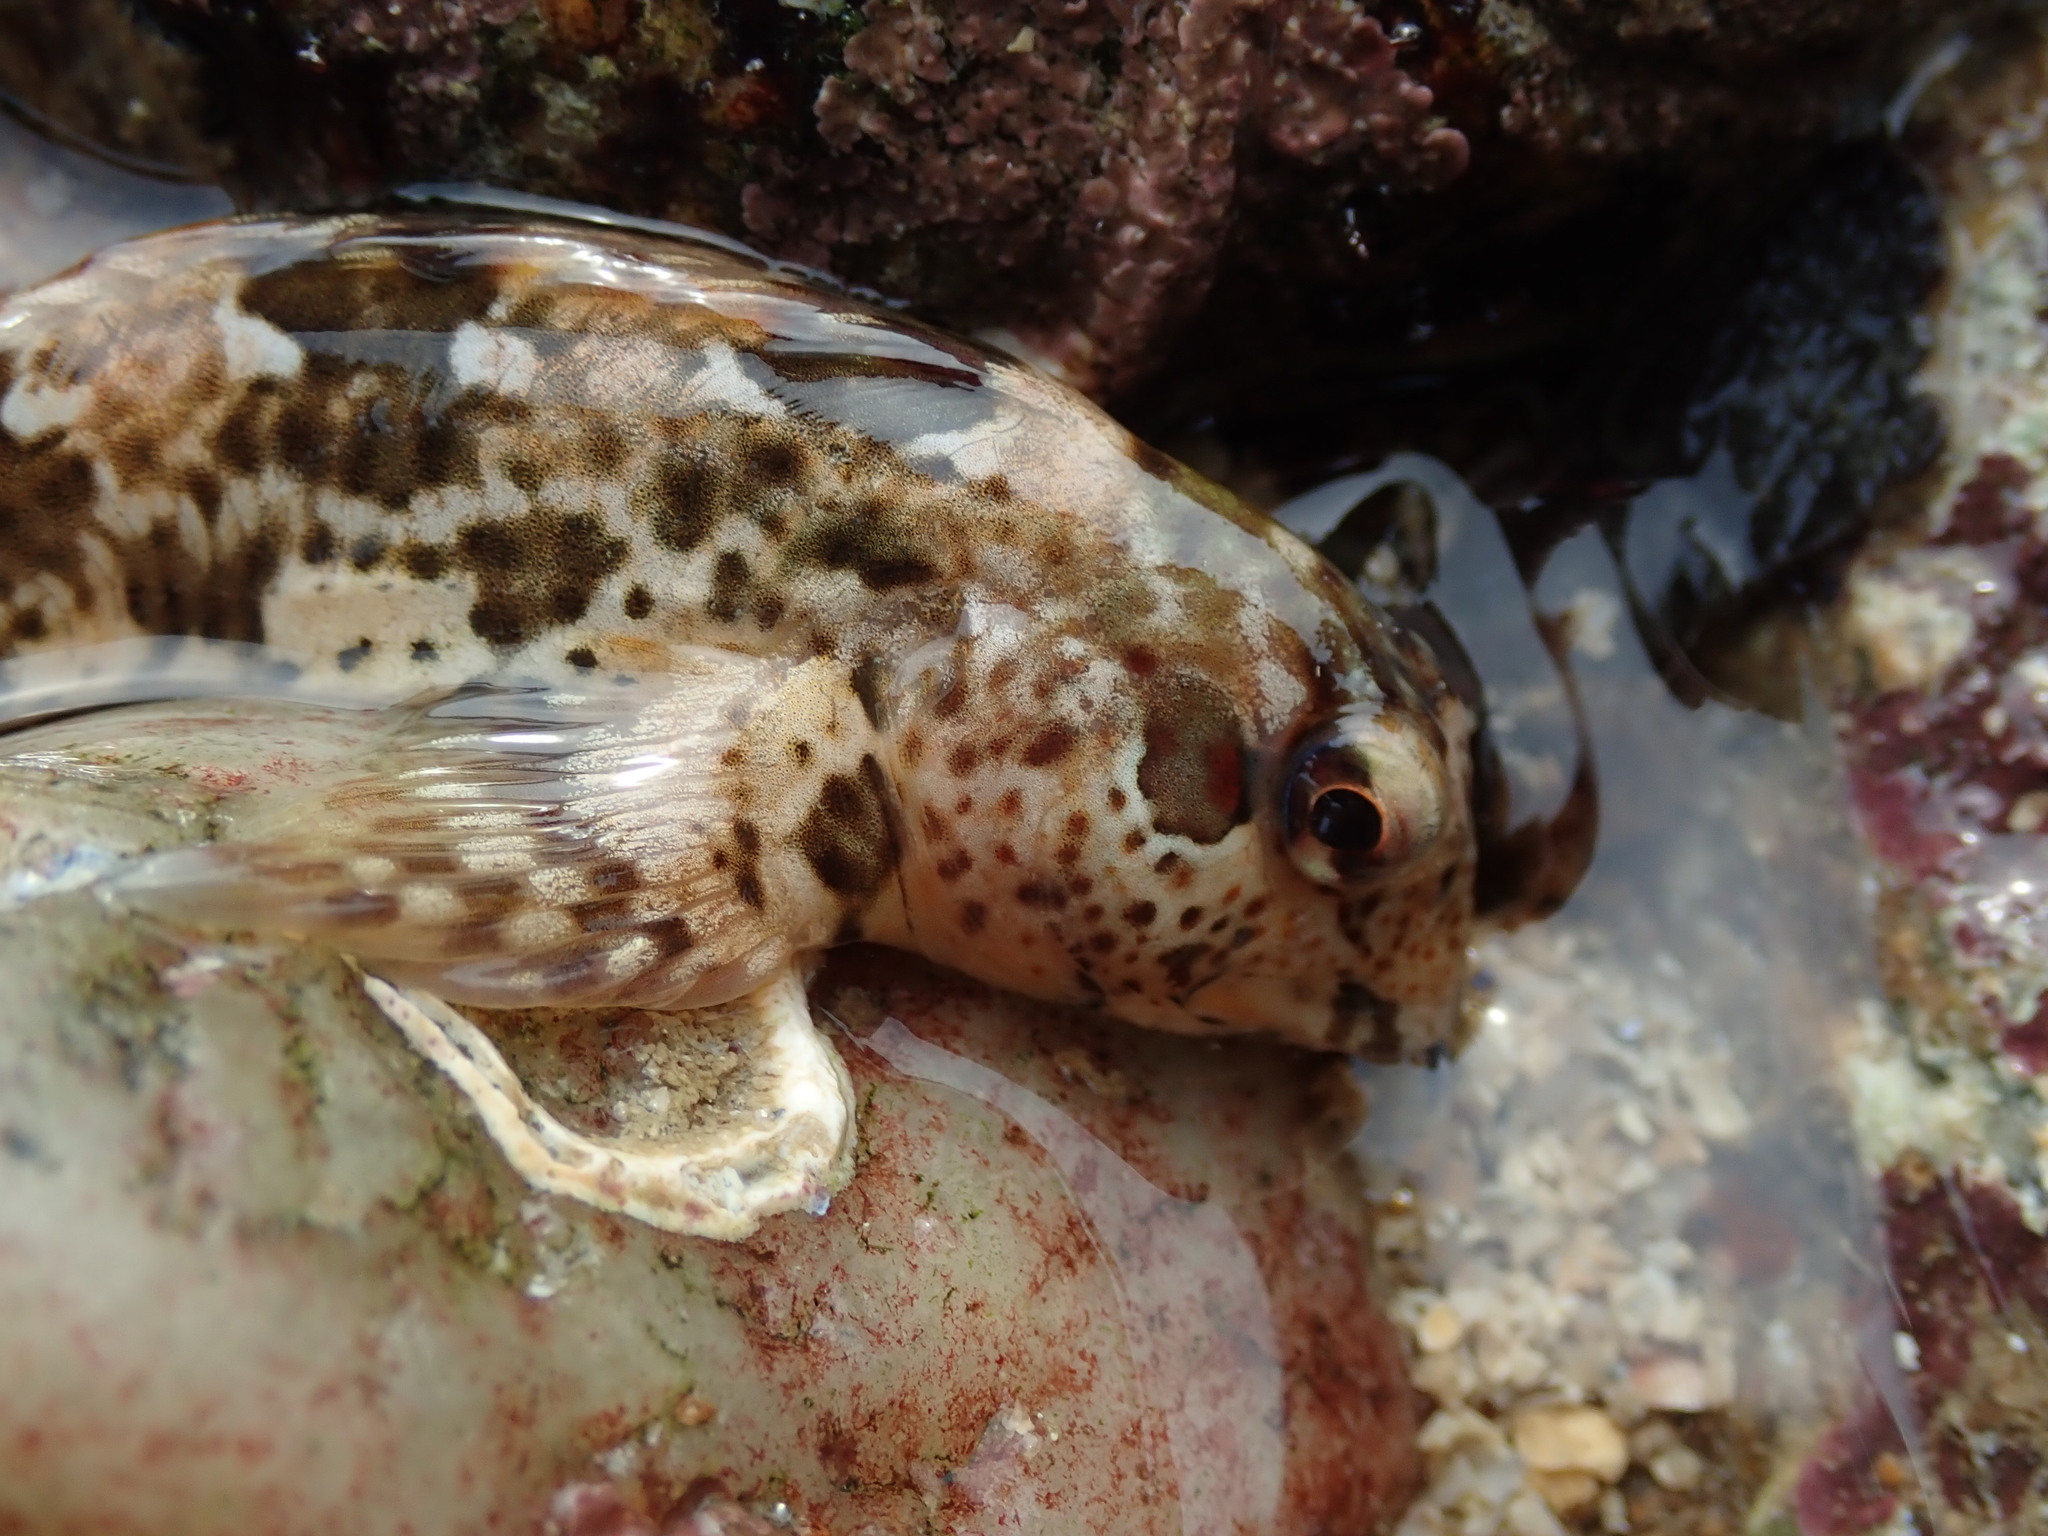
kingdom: Animalia
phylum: Chordata
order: Perciformes
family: Blenniidae
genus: Lipophrys
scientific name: Lipophrys pholis
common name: Shanny
